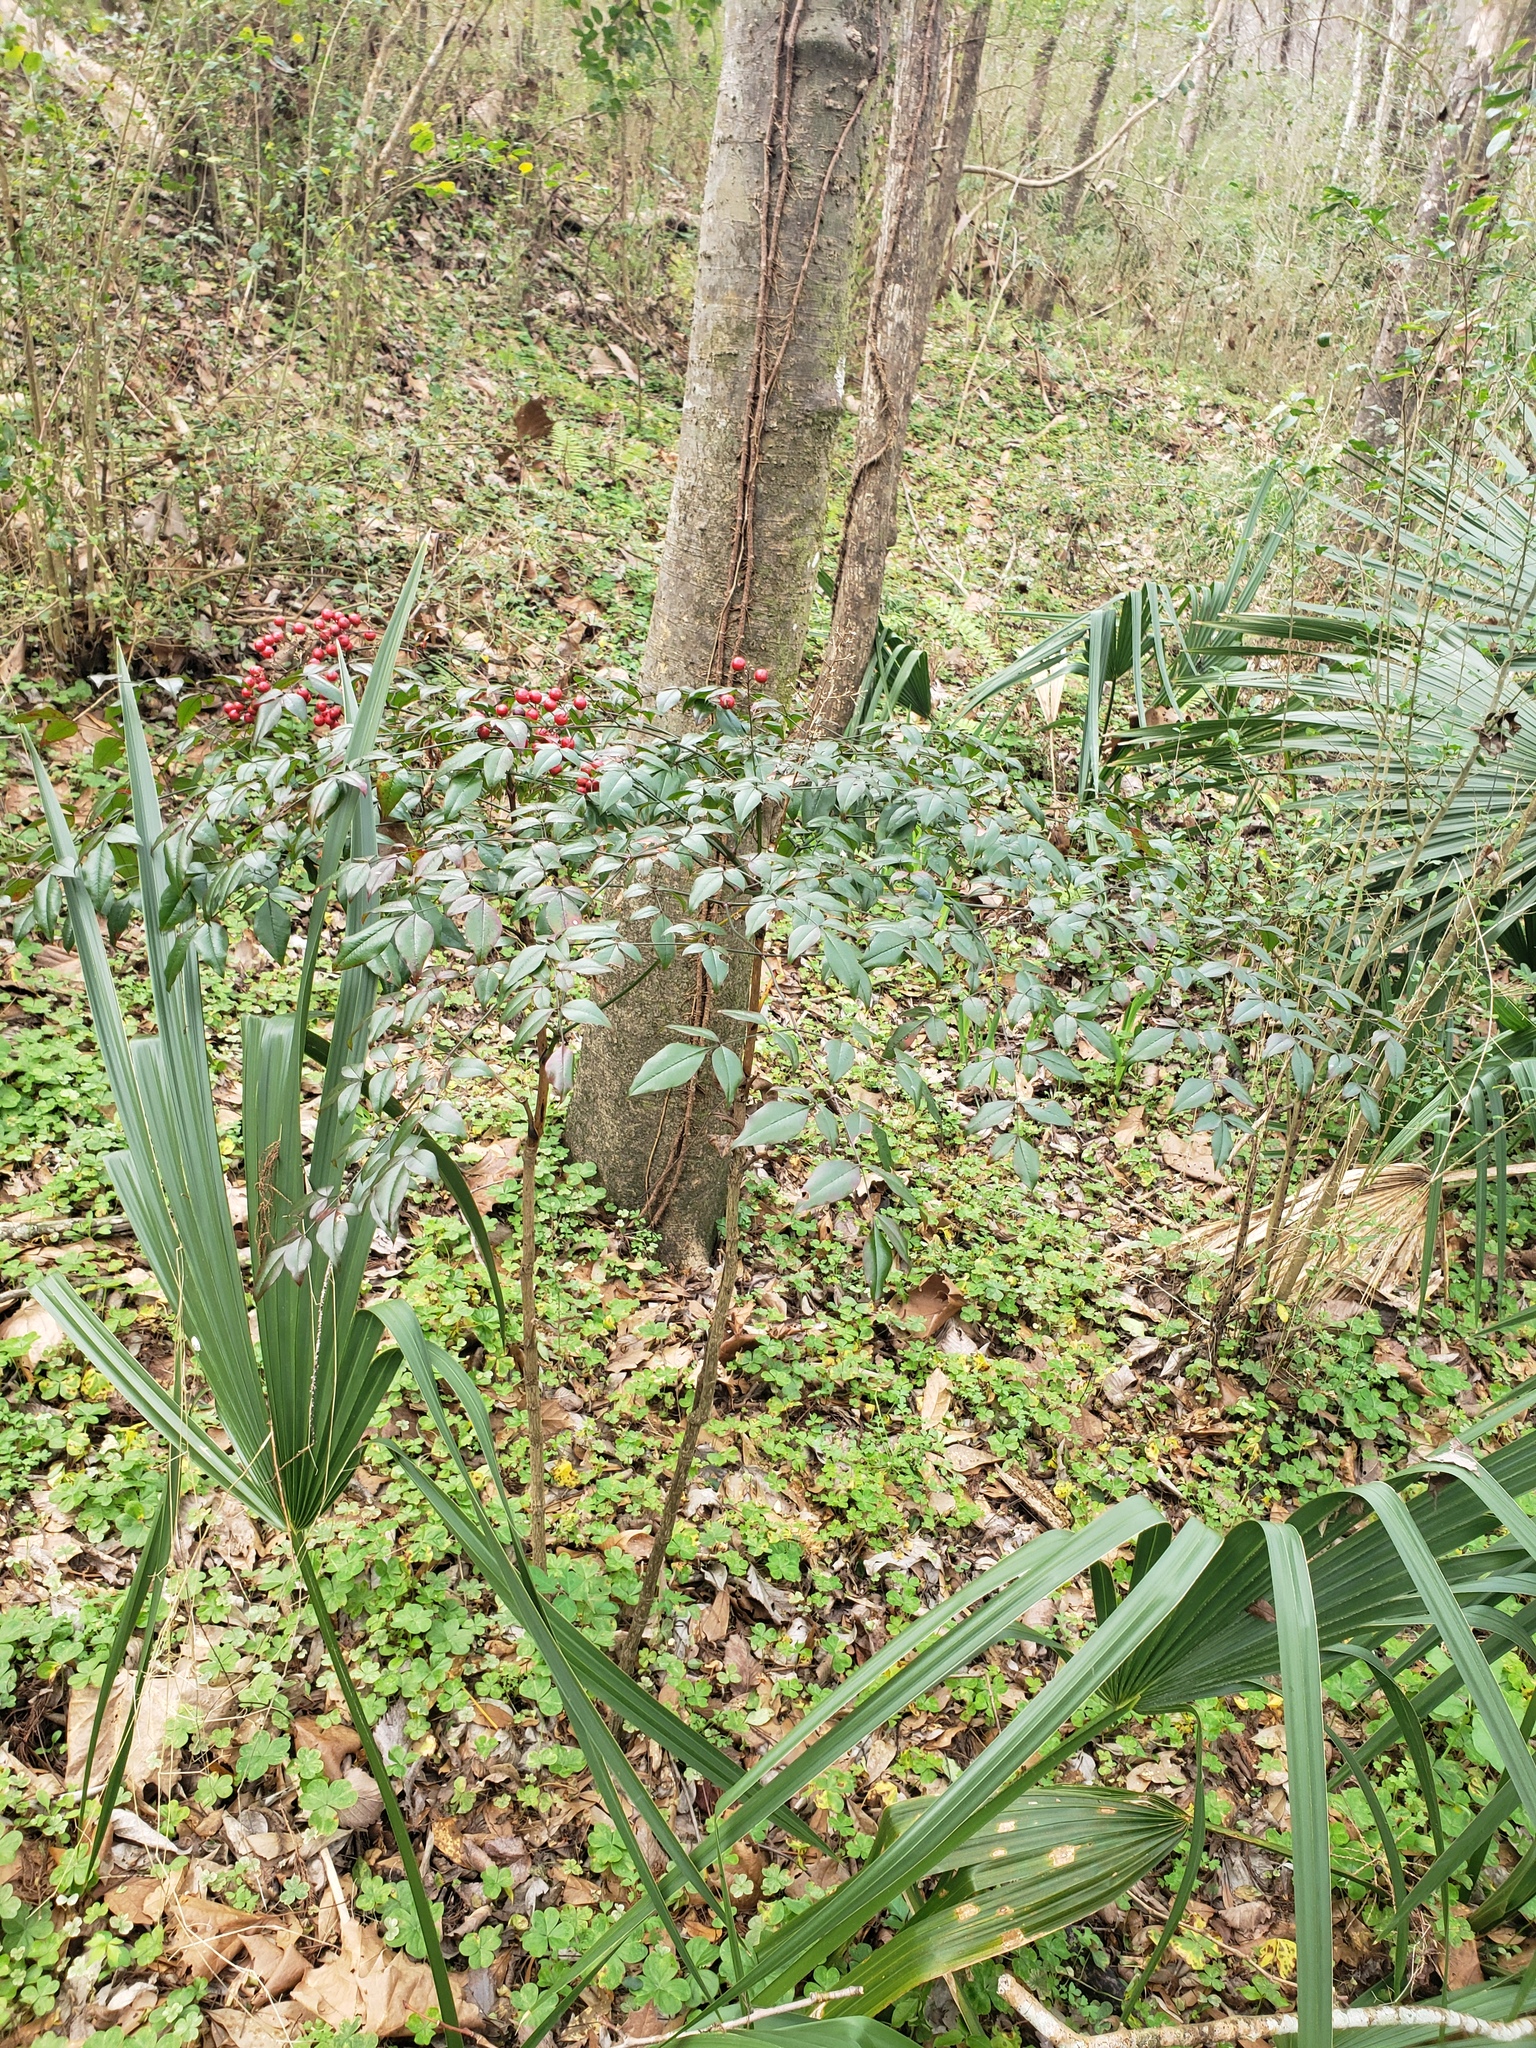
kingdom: Plantae
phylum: Tracheophyta
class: Magnoliopsida
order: Ranunculales
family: Berberidaceae
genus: Nandina
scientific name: Nandina domestica
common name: Sacred bamboo
